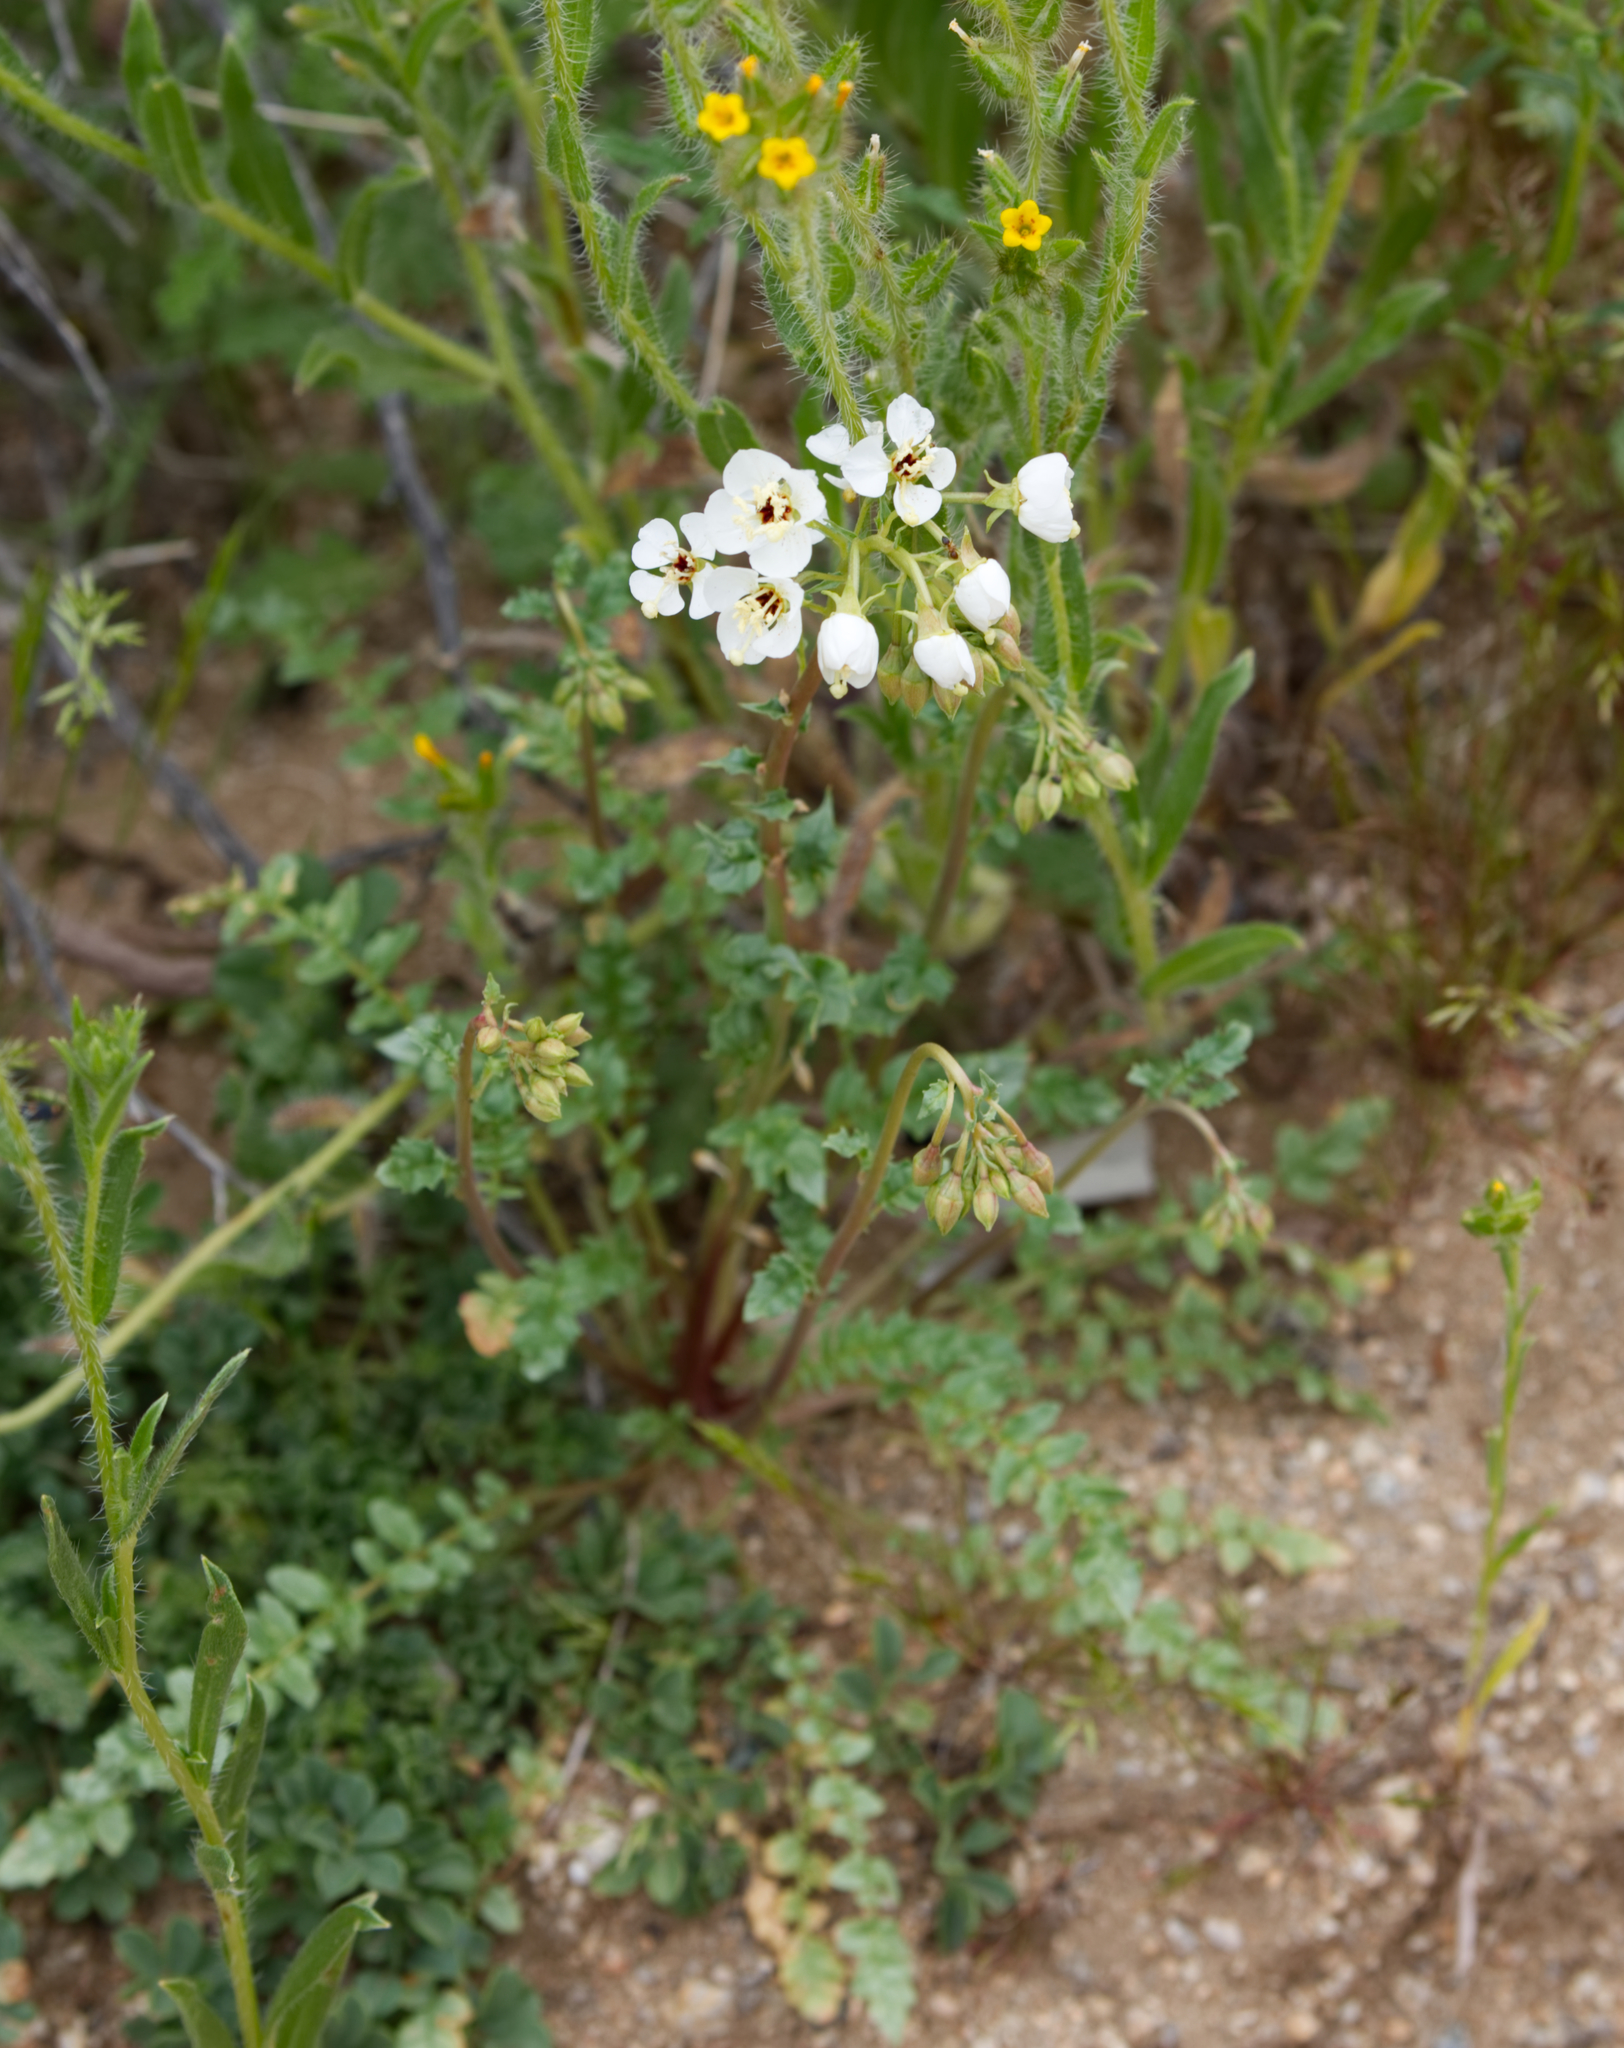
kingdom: Plantae
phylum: Tracheophyta
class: Magnoliopsida
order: Myrtales
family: Onagraceae
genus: Chylismia
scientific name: Chylismia claviformis
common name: Browneyes
